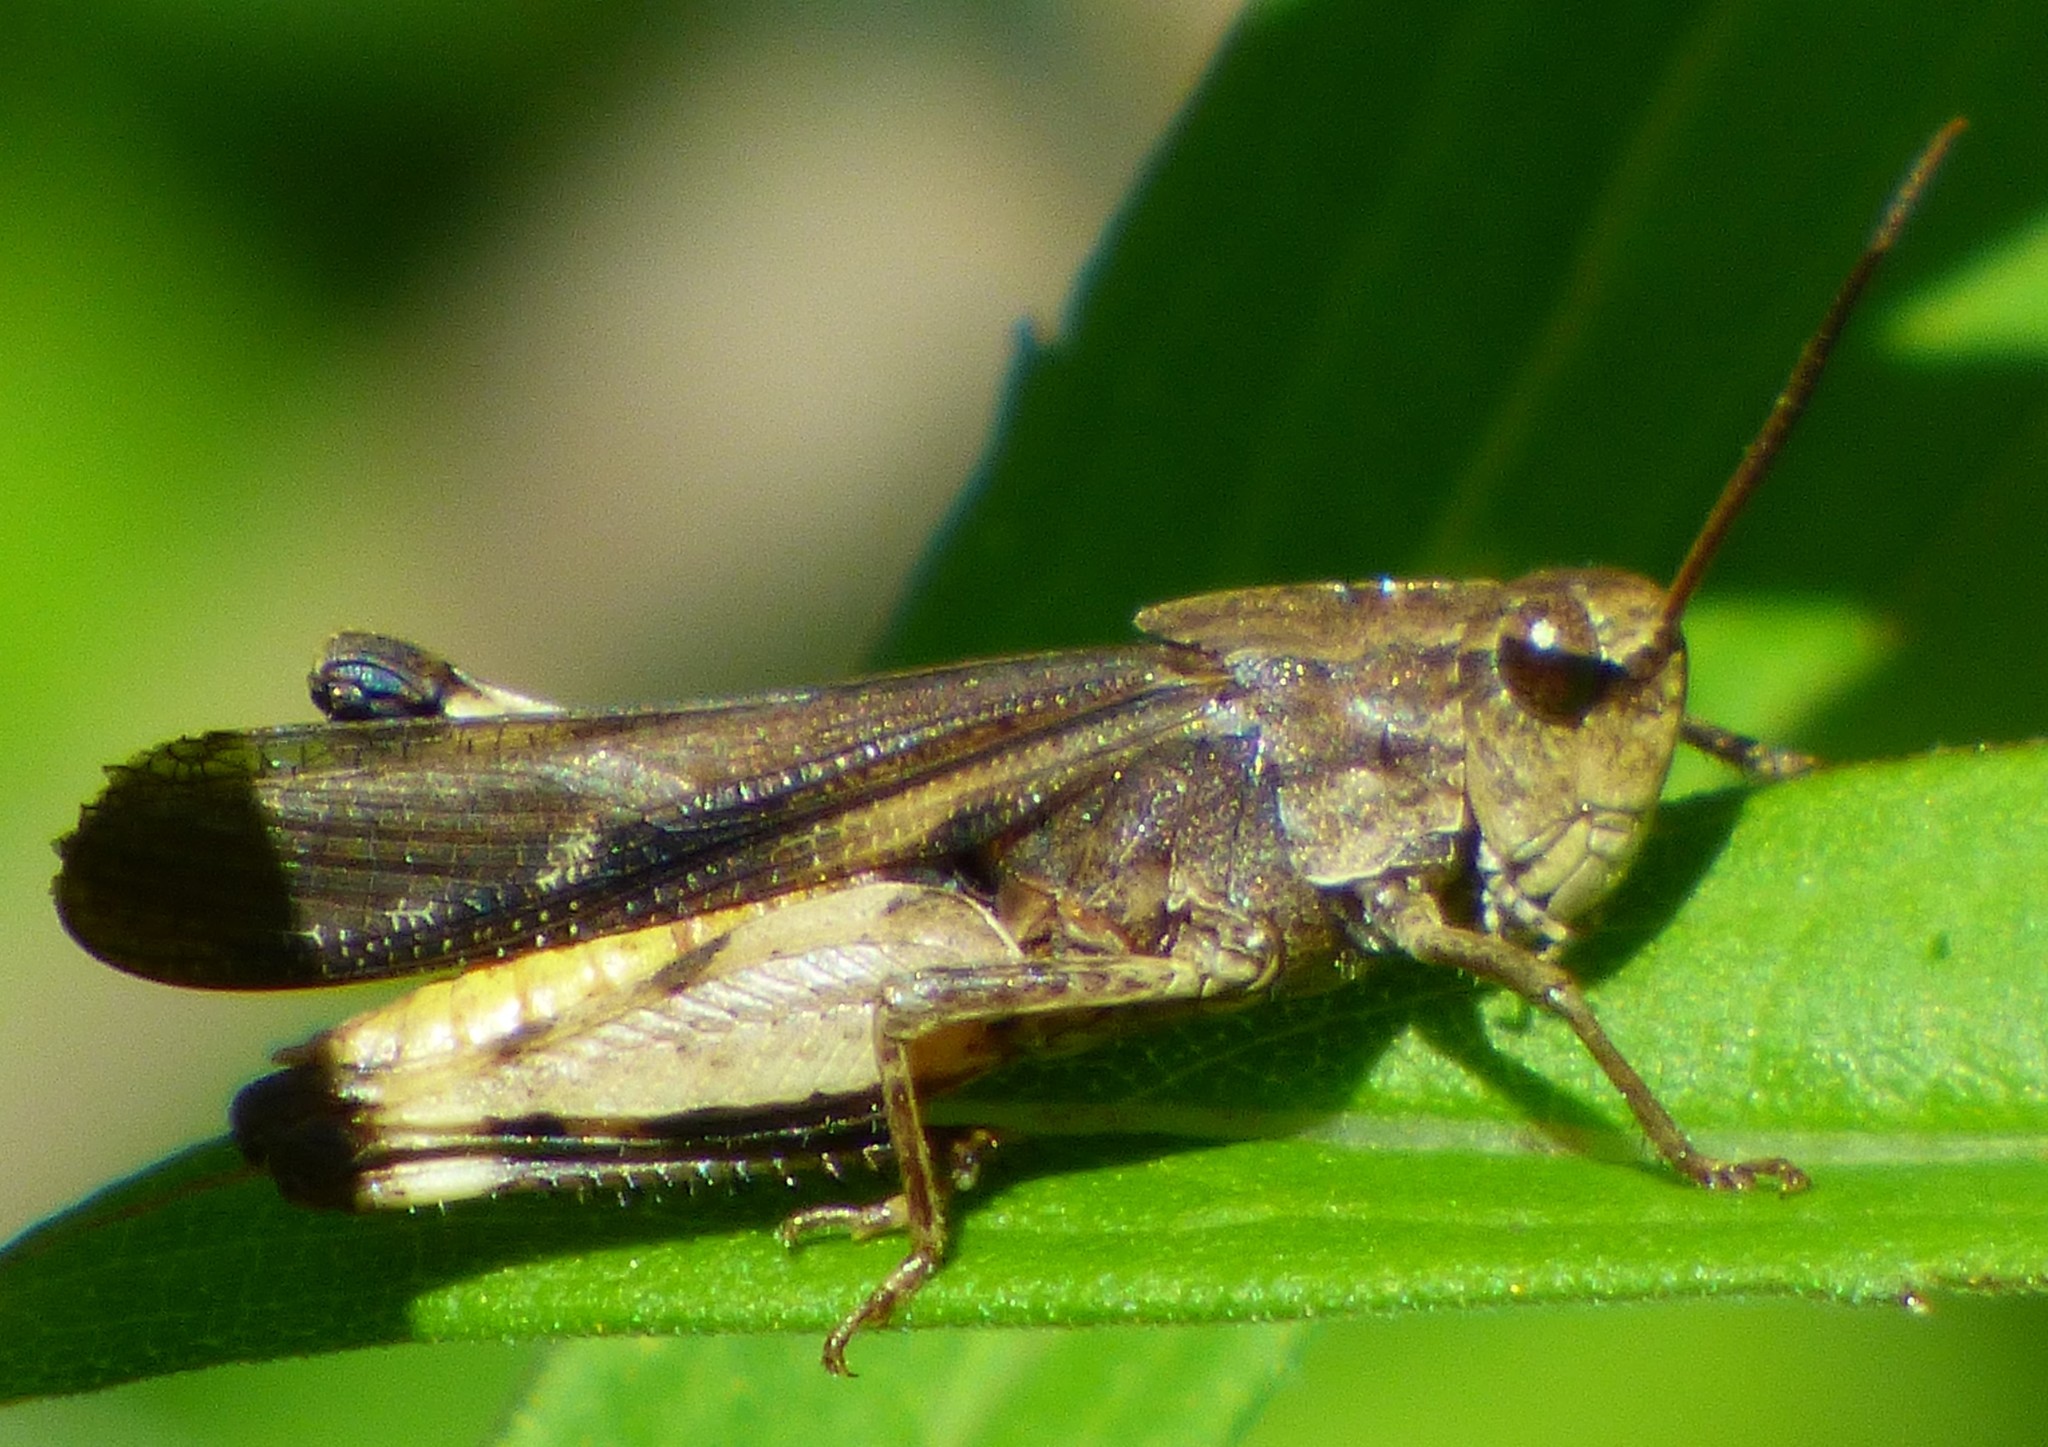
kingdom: Animalia
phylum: Arthropoda
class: Insecta
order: Orthoptera
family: Acrididae
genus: Chortophaga
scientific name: Chortophaga viridifasciata
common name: Green-striped grasshopper
